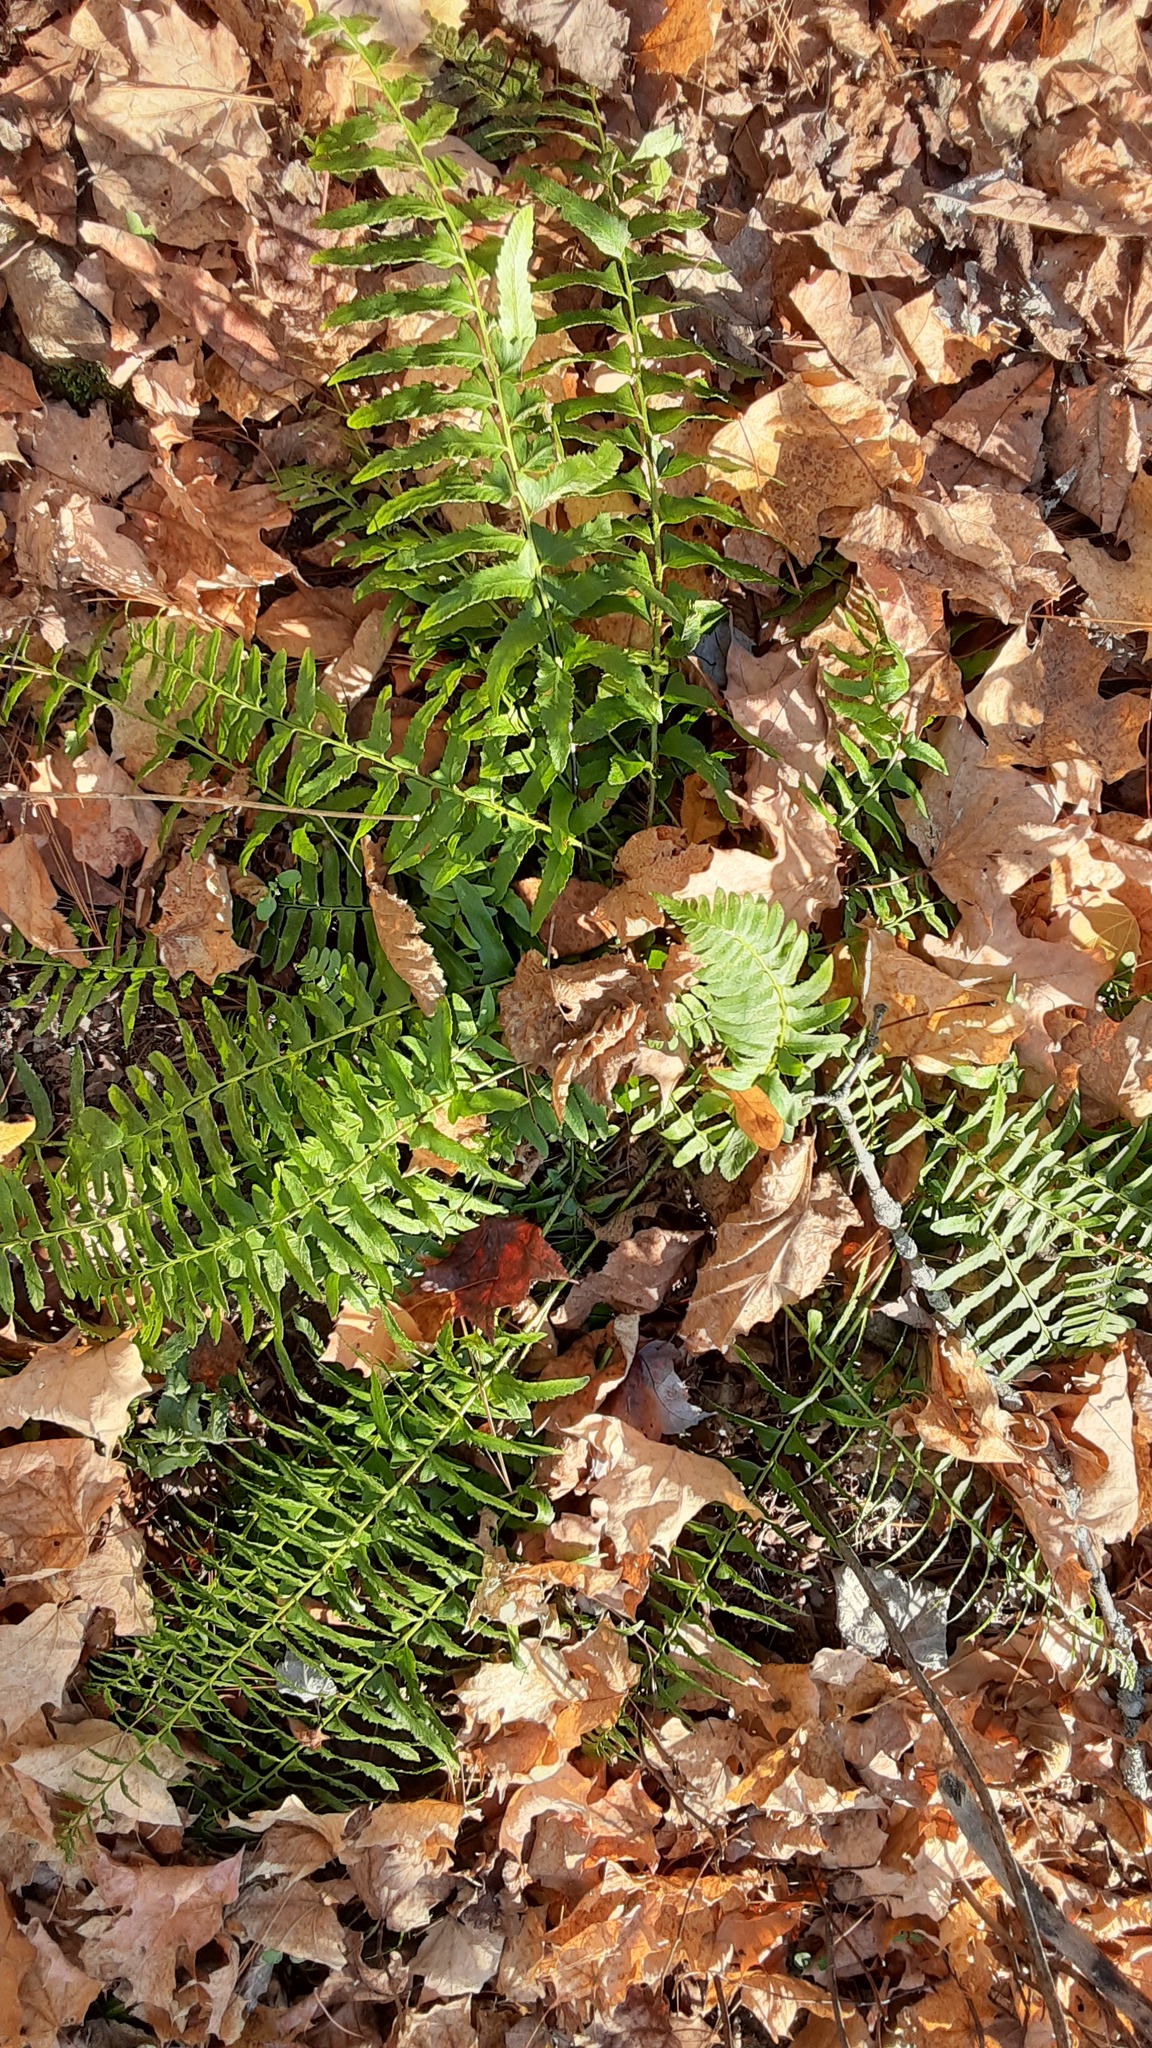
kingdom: Plantae
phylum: Tracheophyta
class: Polypodiopsida
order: Polypodiales
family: Dryopteridaceae
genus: Polystichum
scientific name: Polystichum acrostichoides
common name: Christmas fern
